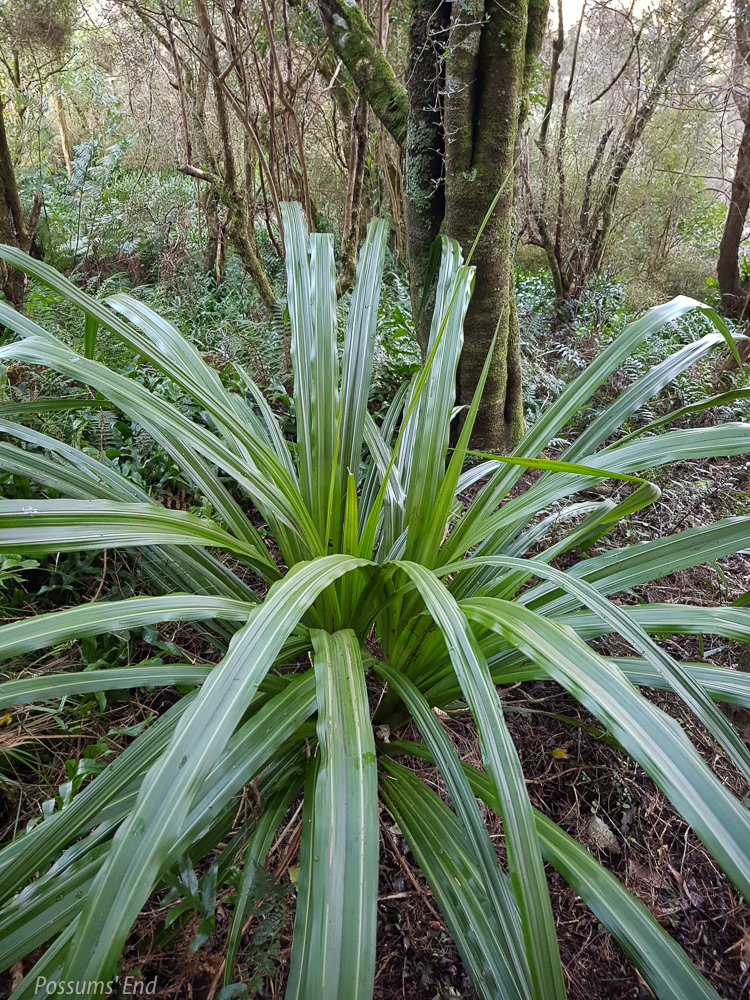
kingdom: Plantae
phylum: Tracheophyta
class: Liliopsida
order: Asparagales
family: Asteliaceae
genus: Astelia
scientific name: Astelia fragrans
